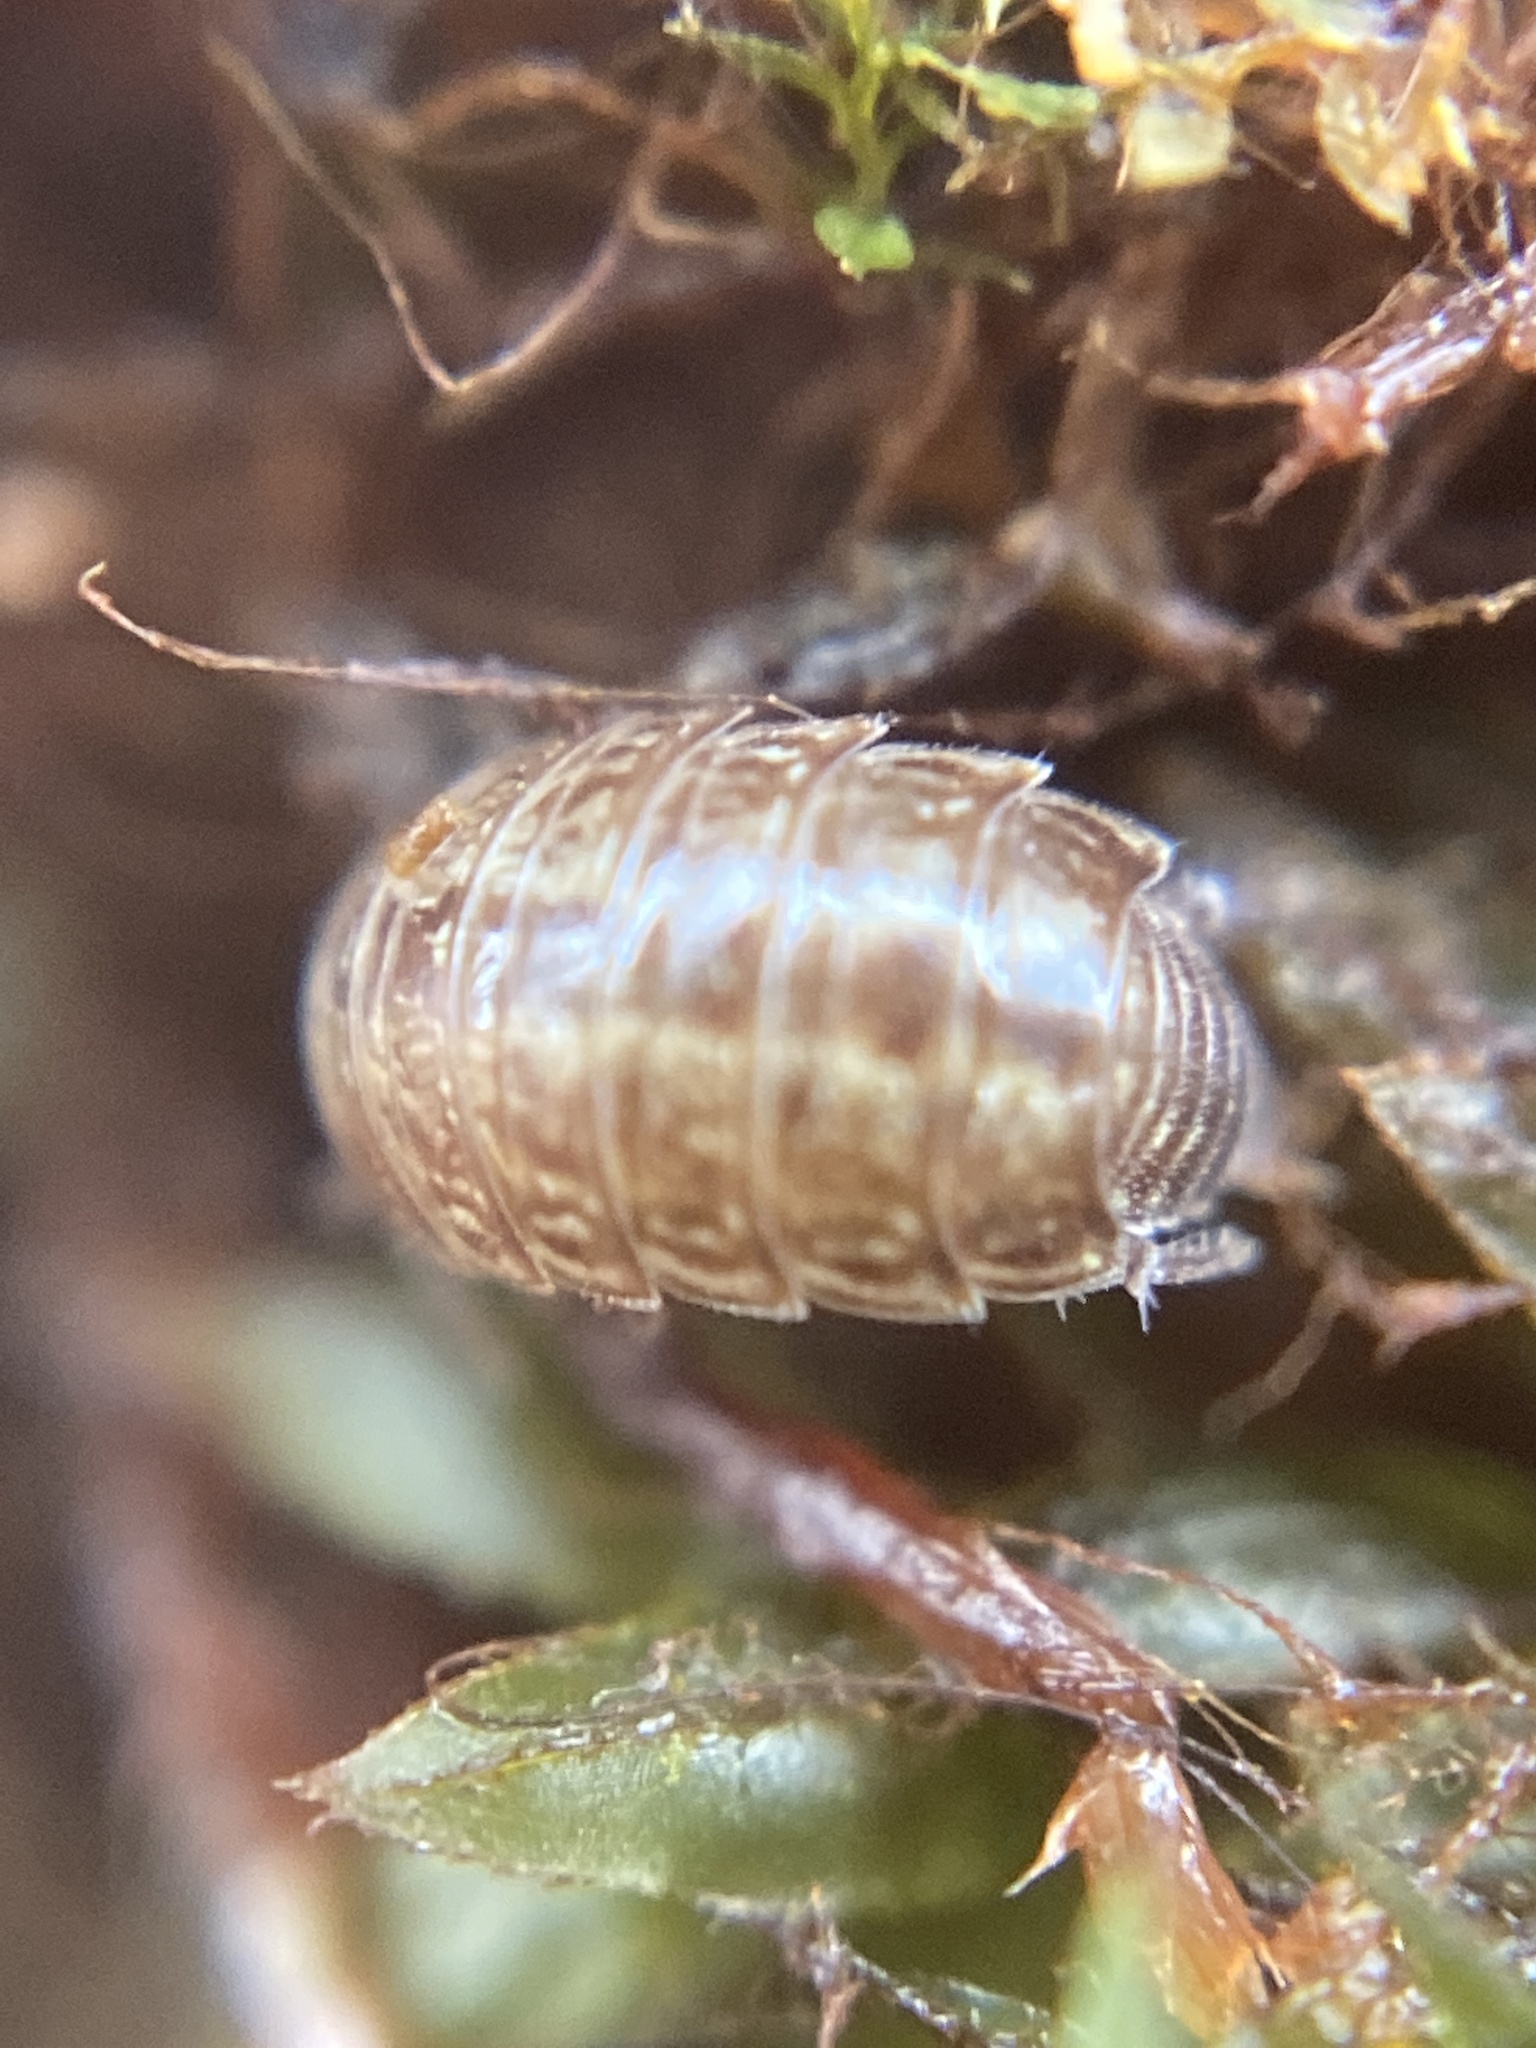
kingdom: Animalia
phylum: Arthropoda
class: Malacostraca
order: Isopoda
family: Philosciidae
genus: Philoscia
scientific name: Philoscia muscorum
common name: Common striped woodlouse
